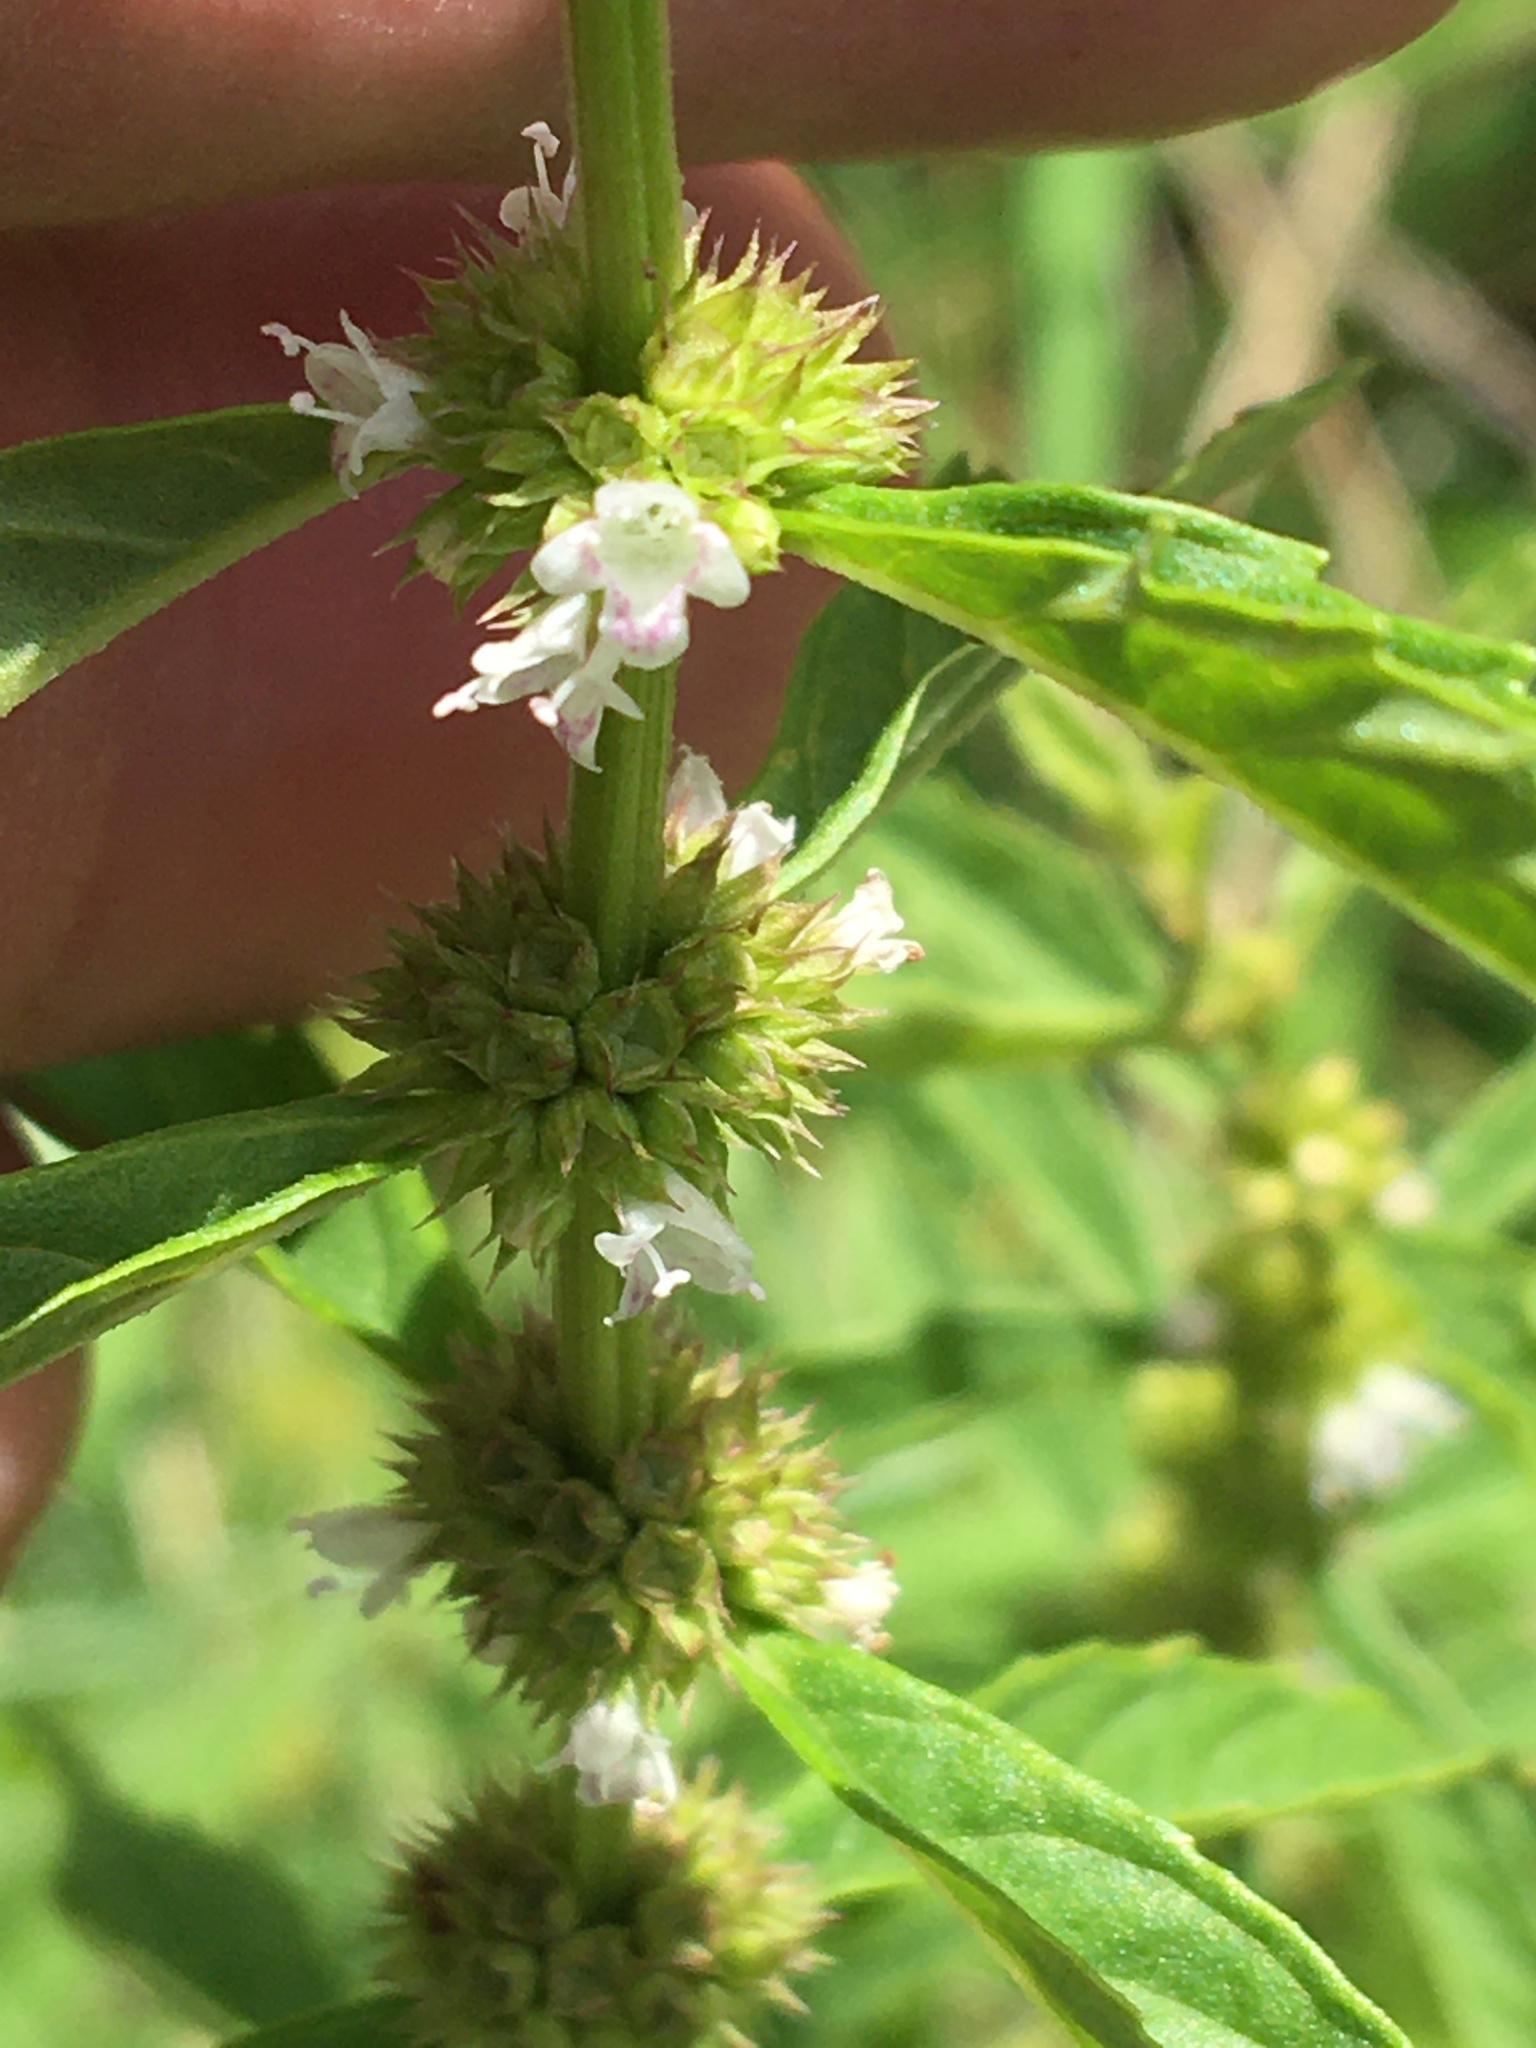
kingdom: Plantae
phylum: Tracheophyta
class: Magnoliopsida
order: Lamiales
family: Lamiaceae
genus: Lycopus
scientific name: Lycopus americanus
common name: American bugleweed
